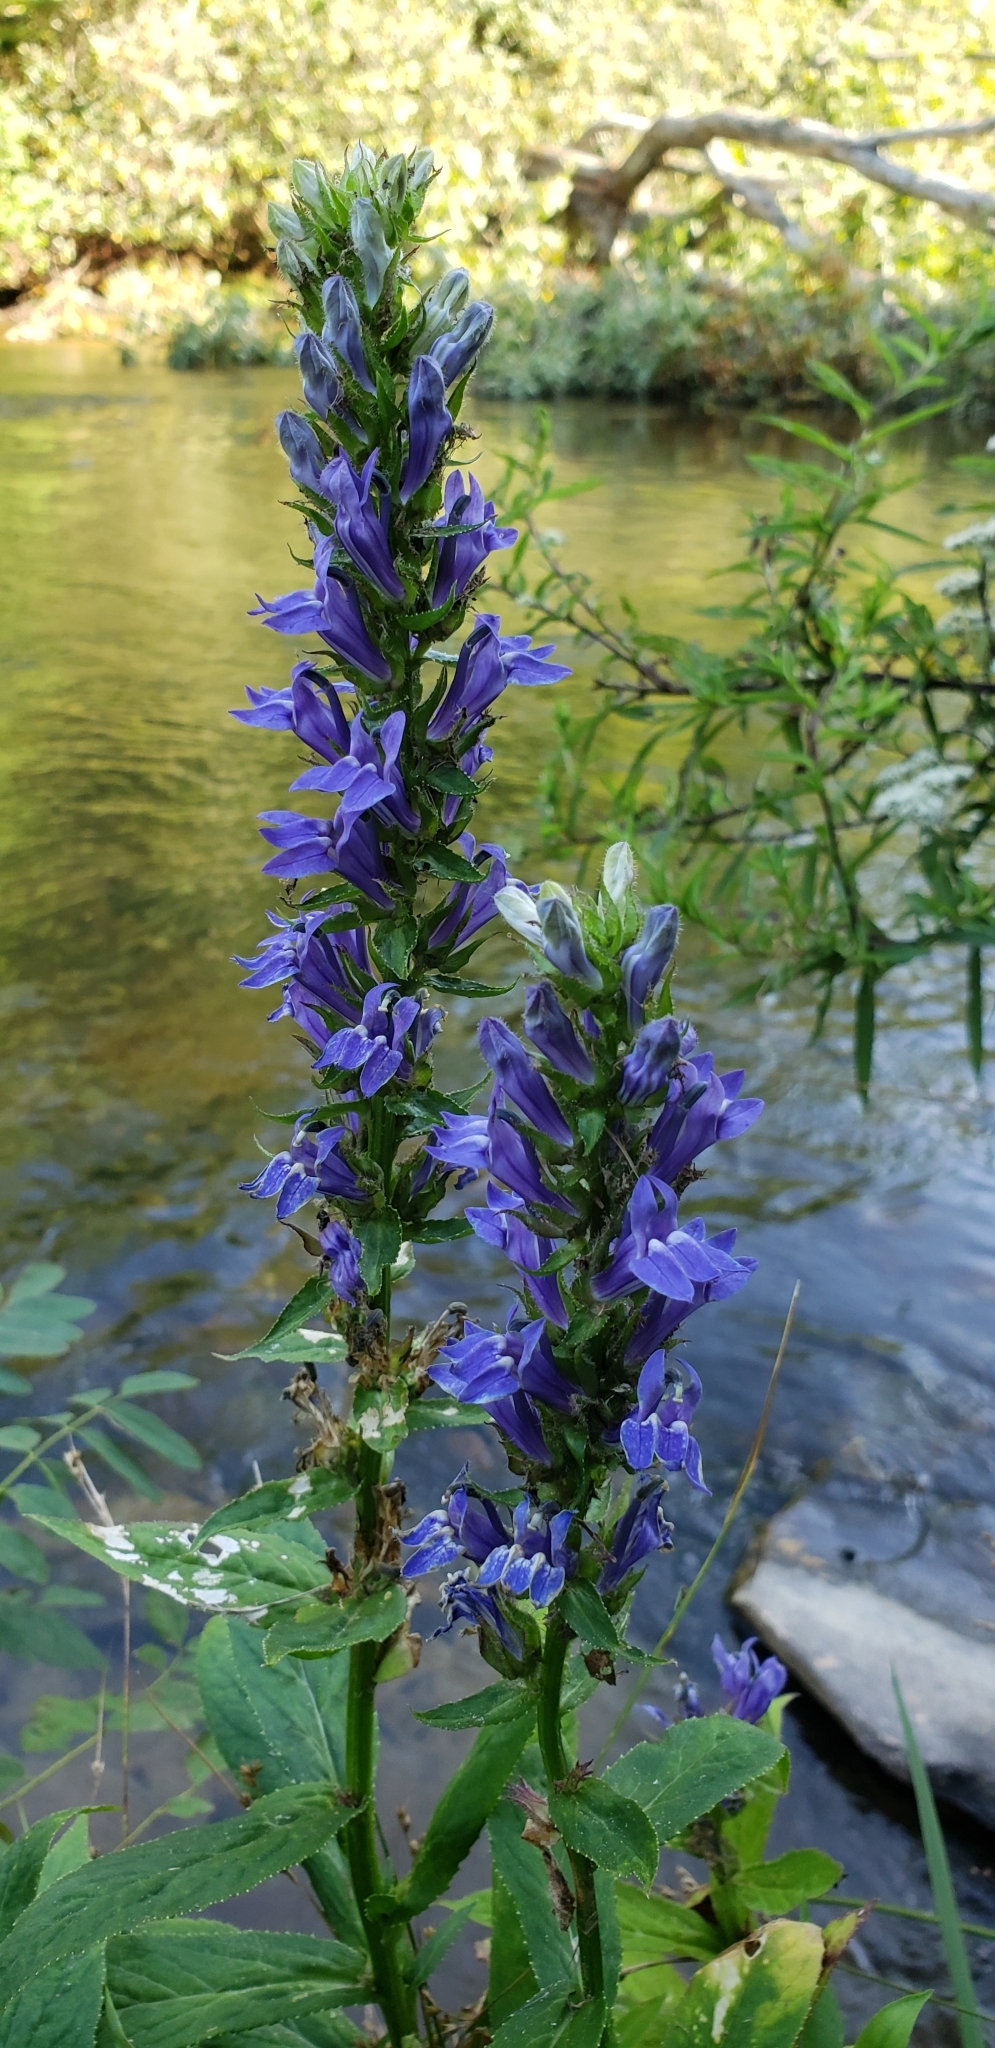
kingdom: Plantae
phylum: Tracheophyta
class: Magnoliopsida
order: Asterales
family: Campanulaceae
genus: Lobelia
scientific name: Lobelia siphilitica
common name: Great lobelia
